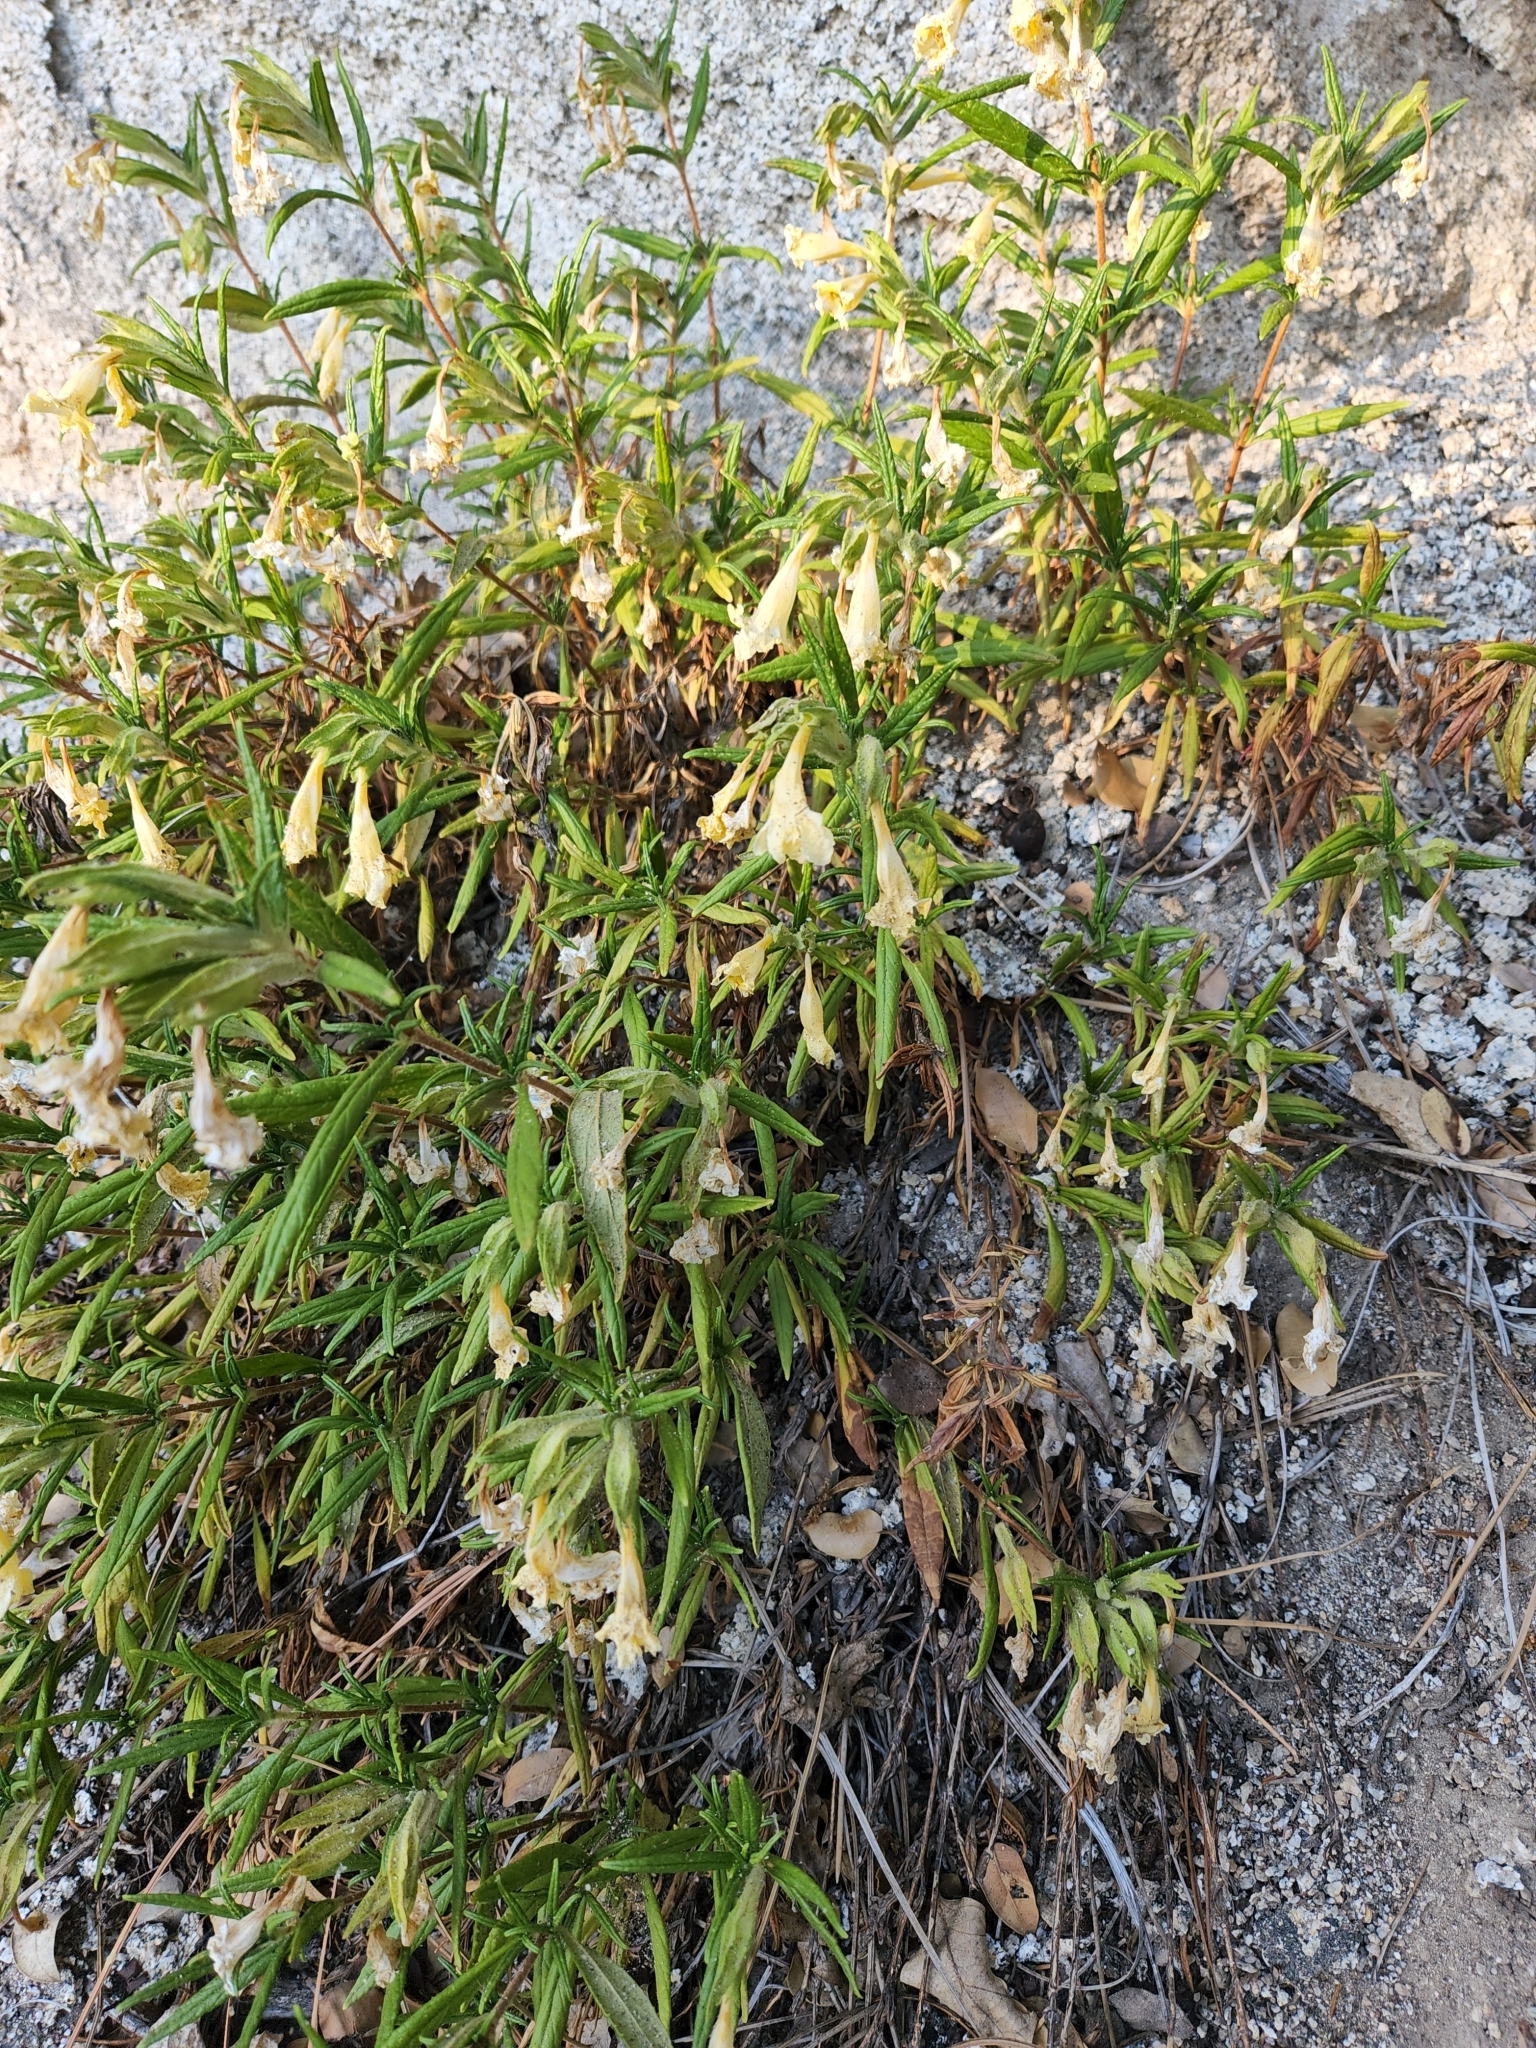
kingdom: Plantae
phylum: Tracheophyta
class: Magnoliopsida
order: Lamiales
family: Phrymaceae
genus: Diplacus
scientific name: Diplacus calycinus
